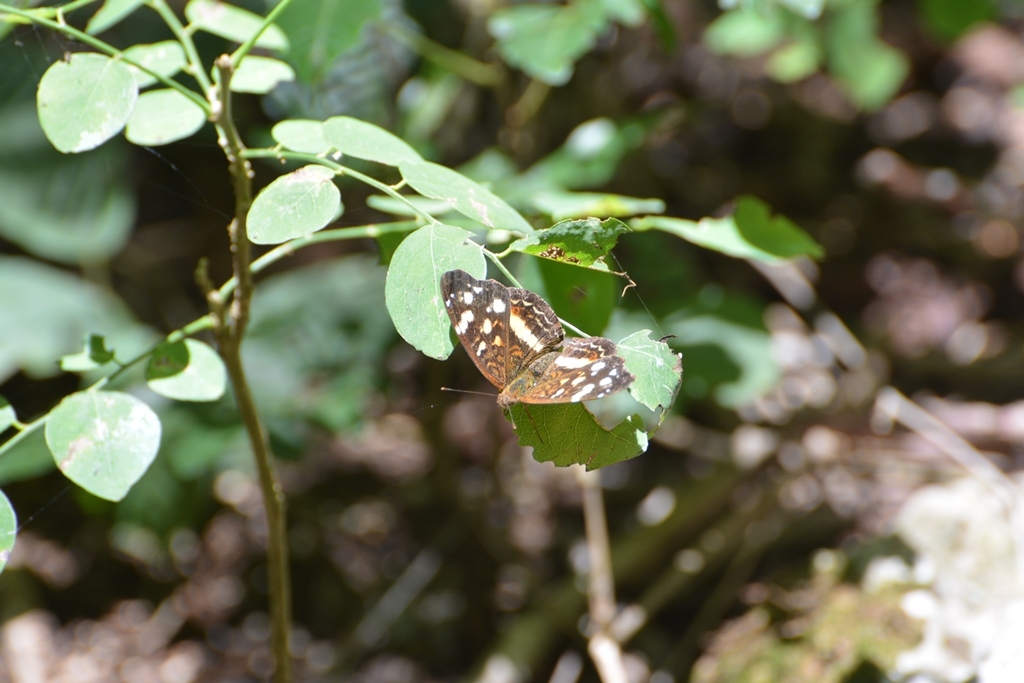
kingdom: Animalia
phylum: Arthropoda
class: Insecta
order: Lepidoptera
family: Nymphalidae
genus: Anthanassa
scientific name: Anthanassa tulcis
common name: Pale-banded crescent
